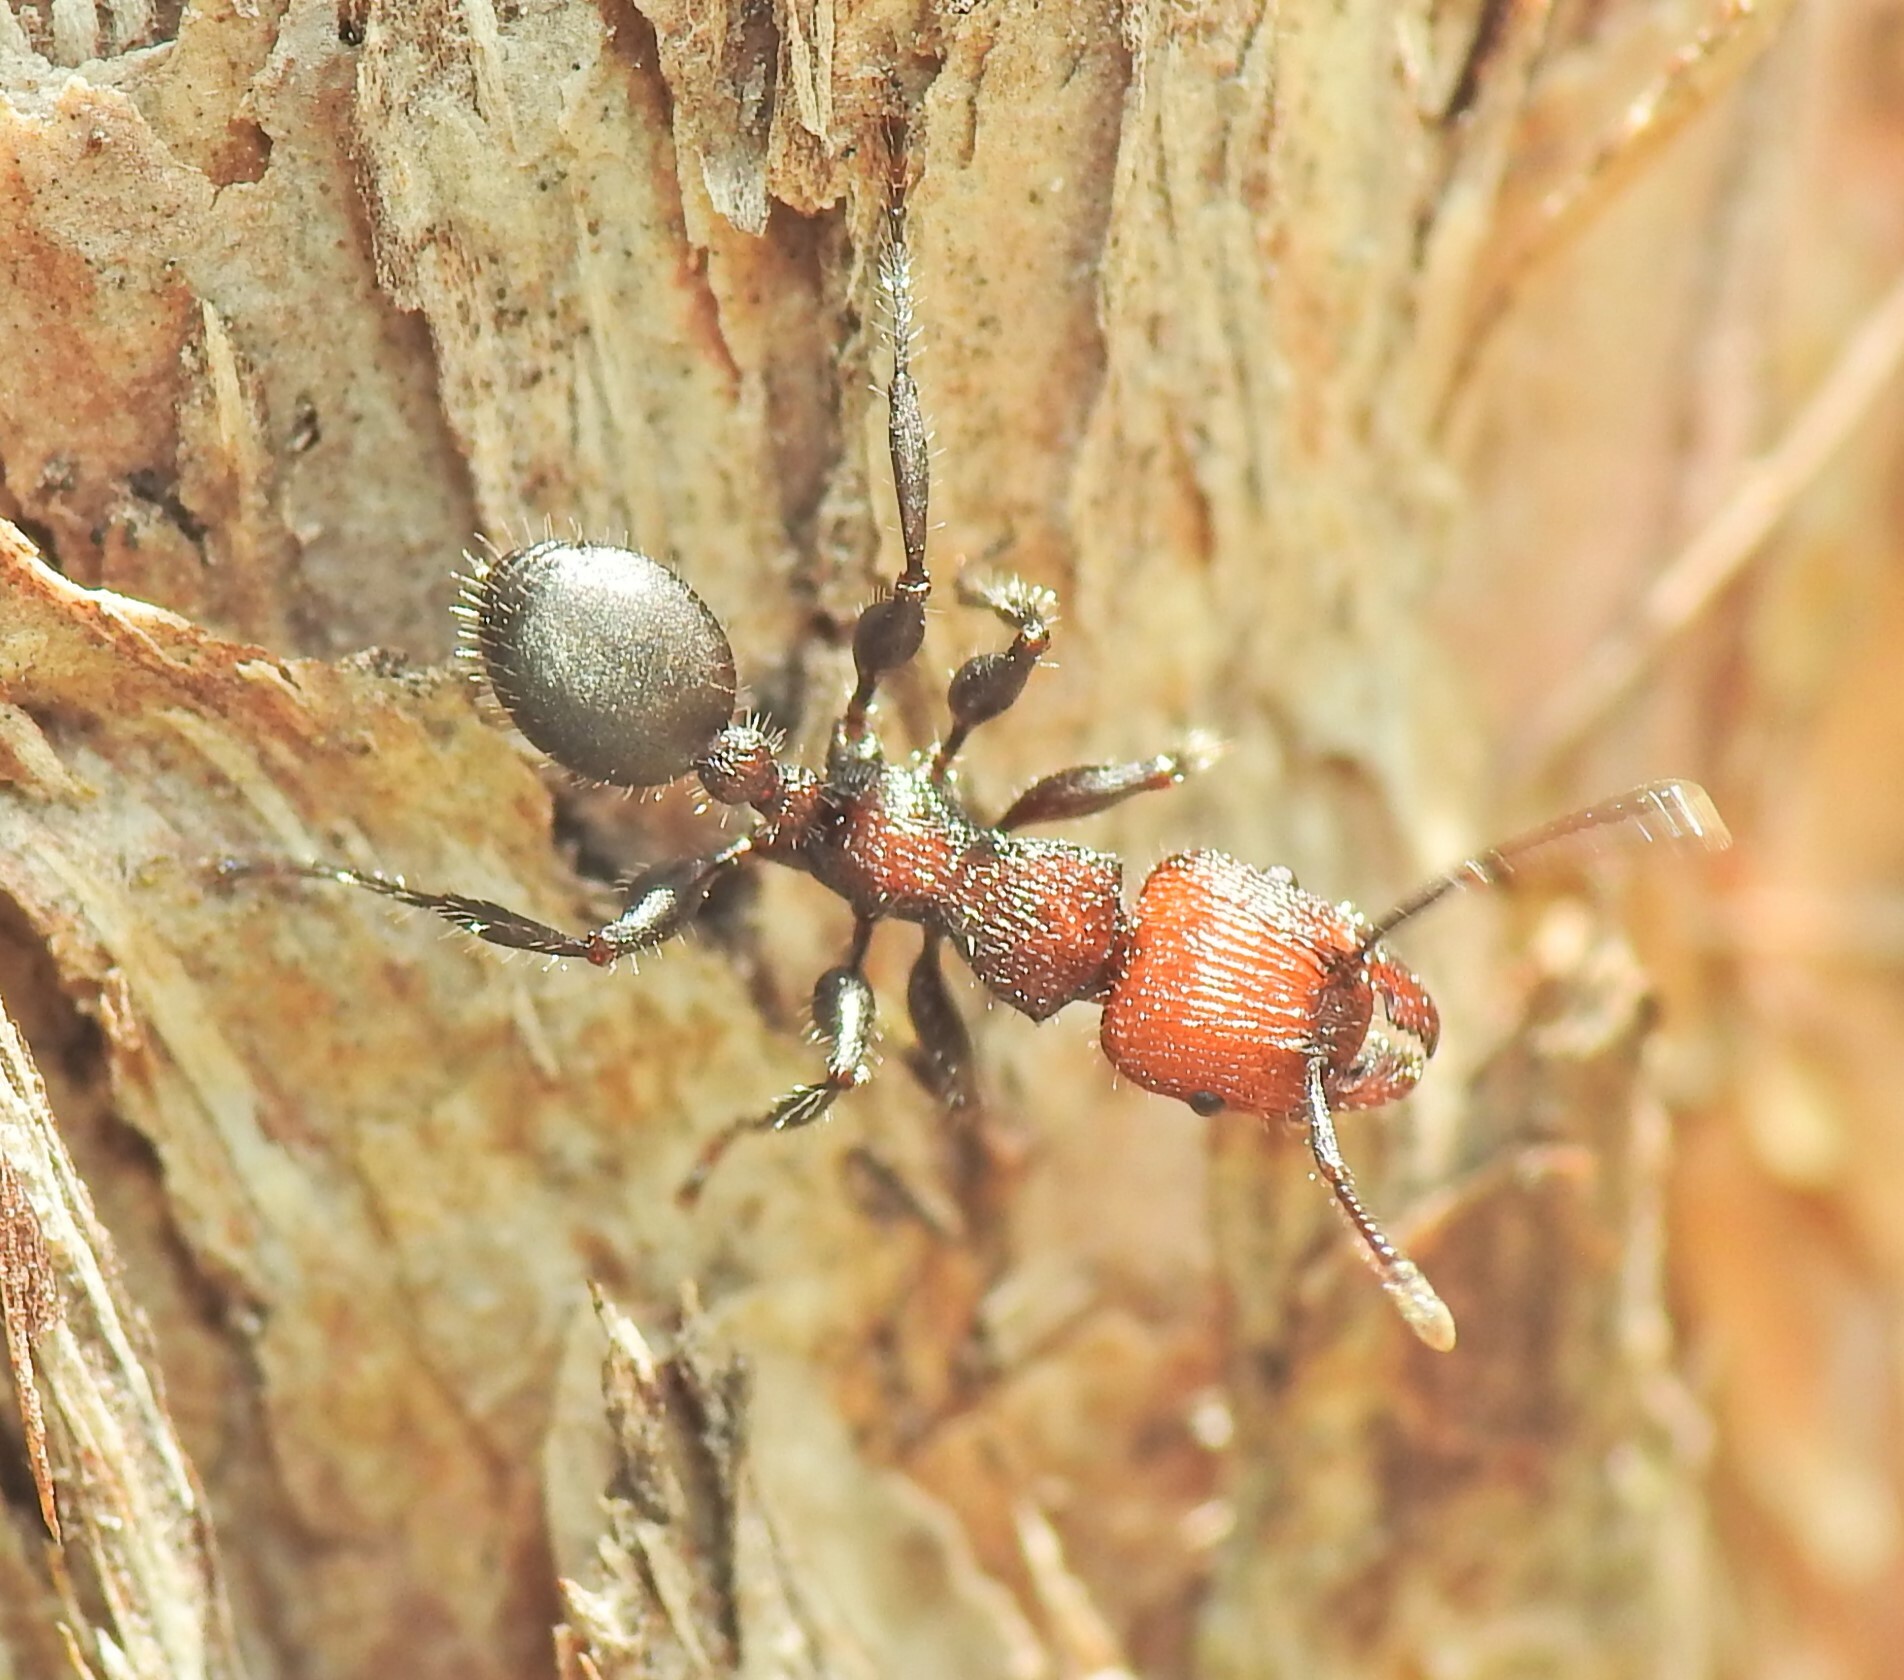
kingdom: Animalia
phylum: Arthropoda
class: Insecta
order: Hymenoptera
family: Formicidae
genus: Podomyrma
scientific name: Podomyrma micans
